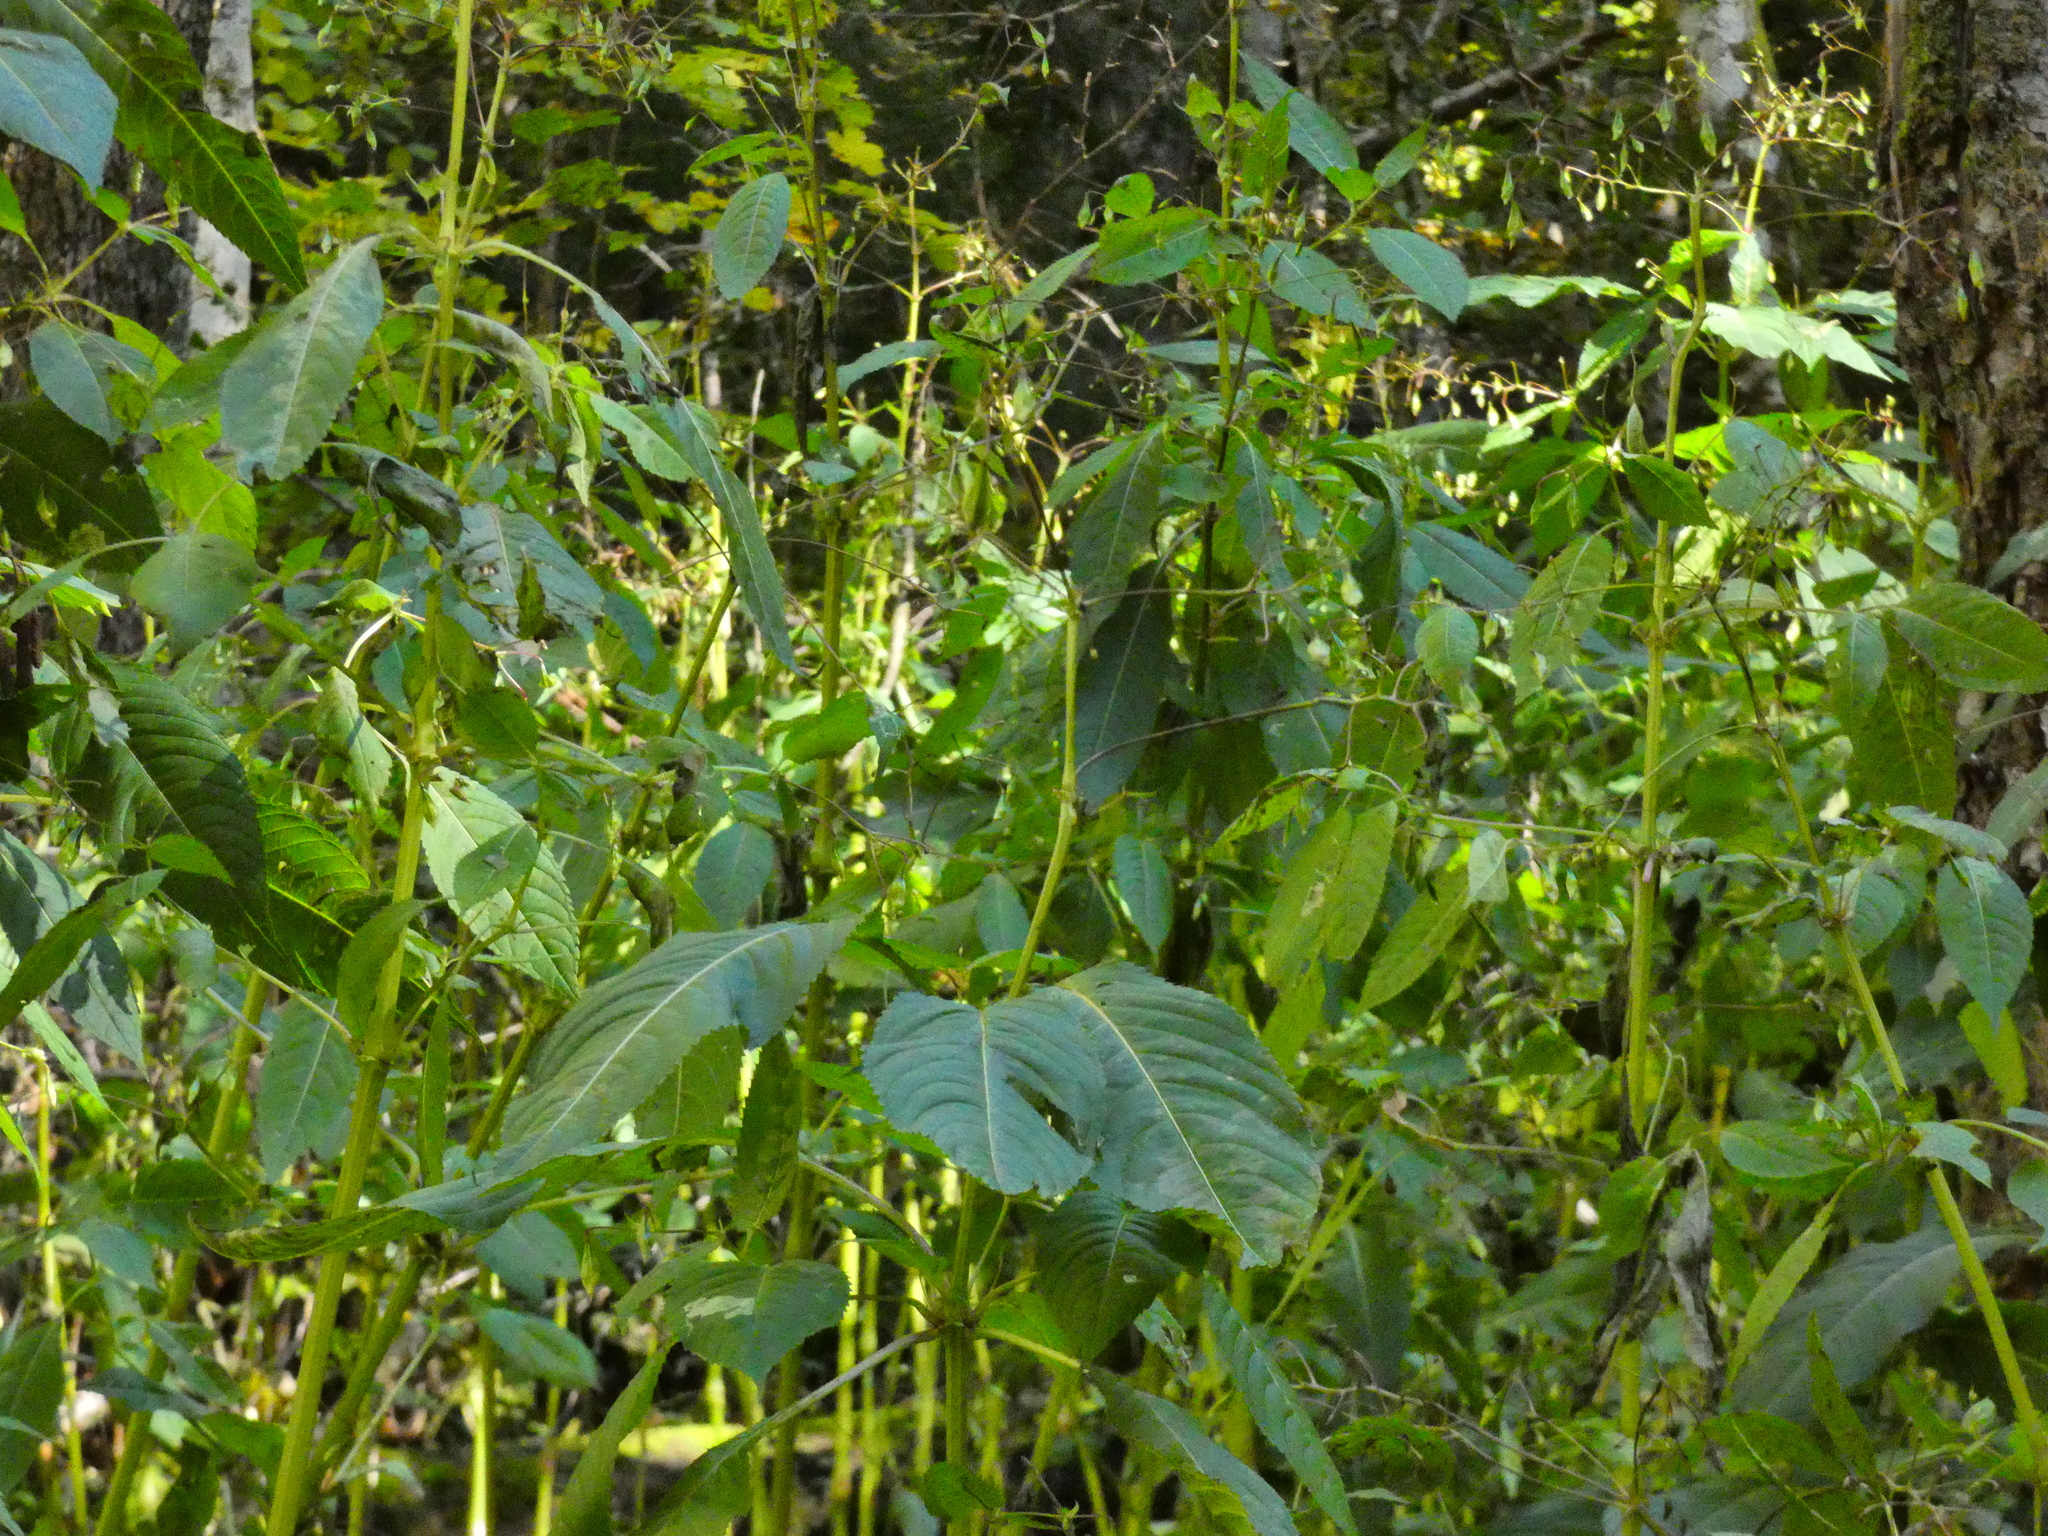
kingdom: Plantae
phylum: Tracheophyta
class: Magnoliopsida
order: Ericales
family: Balsaminaceae
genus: Impatiens
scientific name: Impatiens glandulifera
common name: Himalayan balsam
